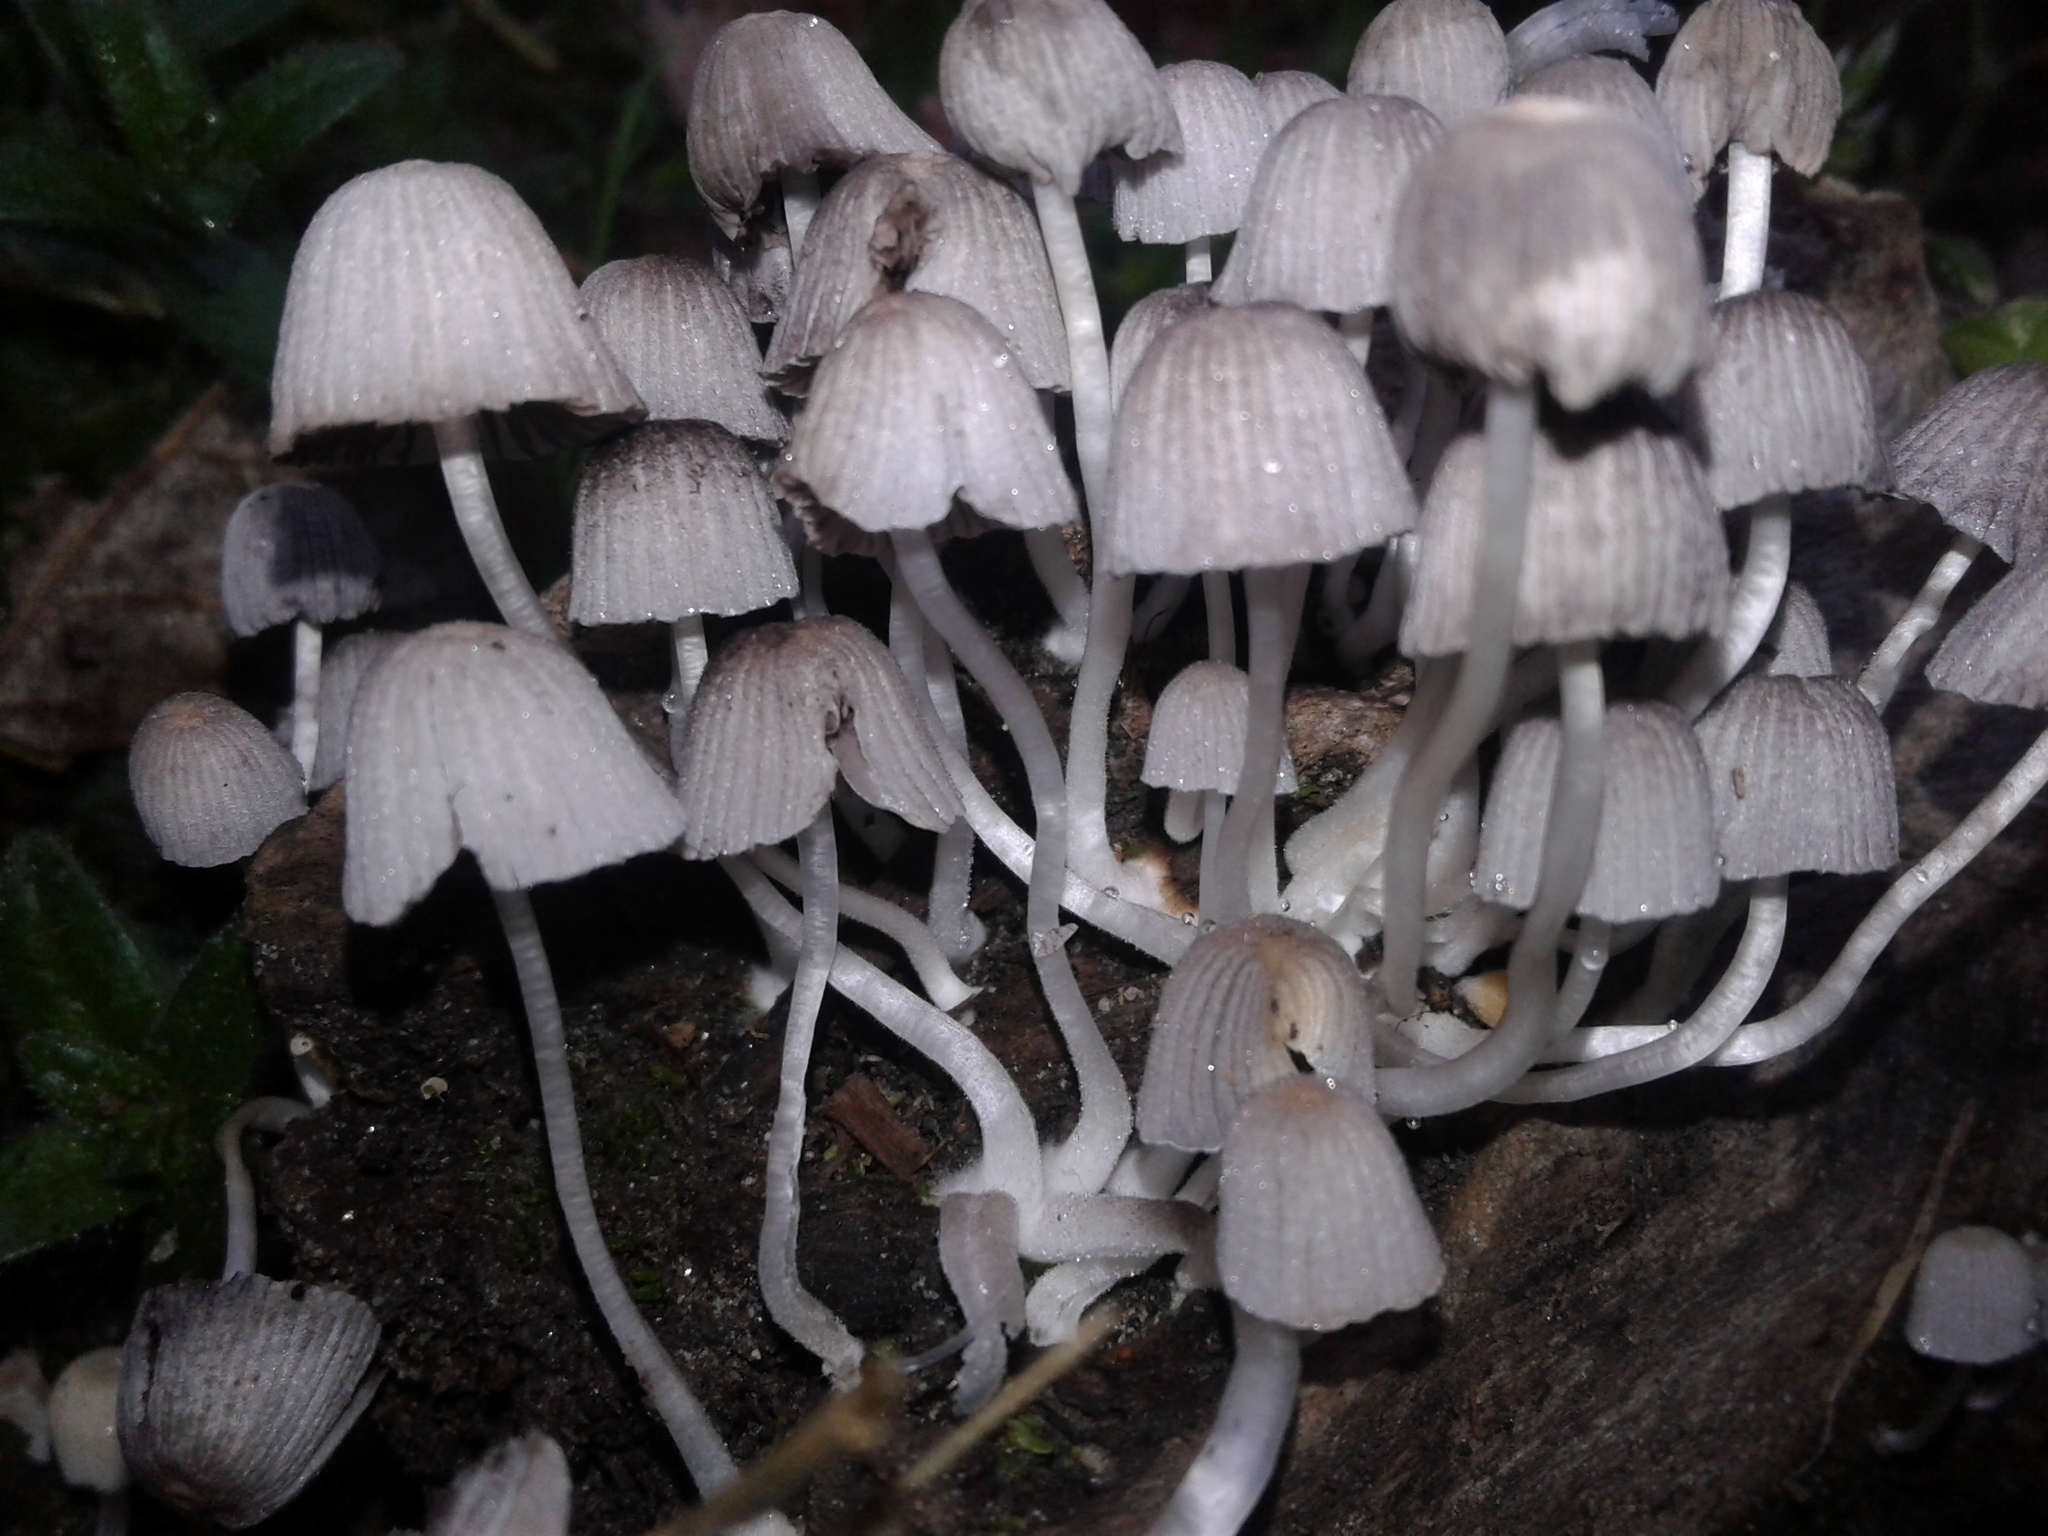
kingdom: Fungi
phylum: Basidiomycota
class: Agaricomycetes
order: Agaricales
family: Psathyrellaceae
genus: Coprinellus
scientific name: Coprinellus
